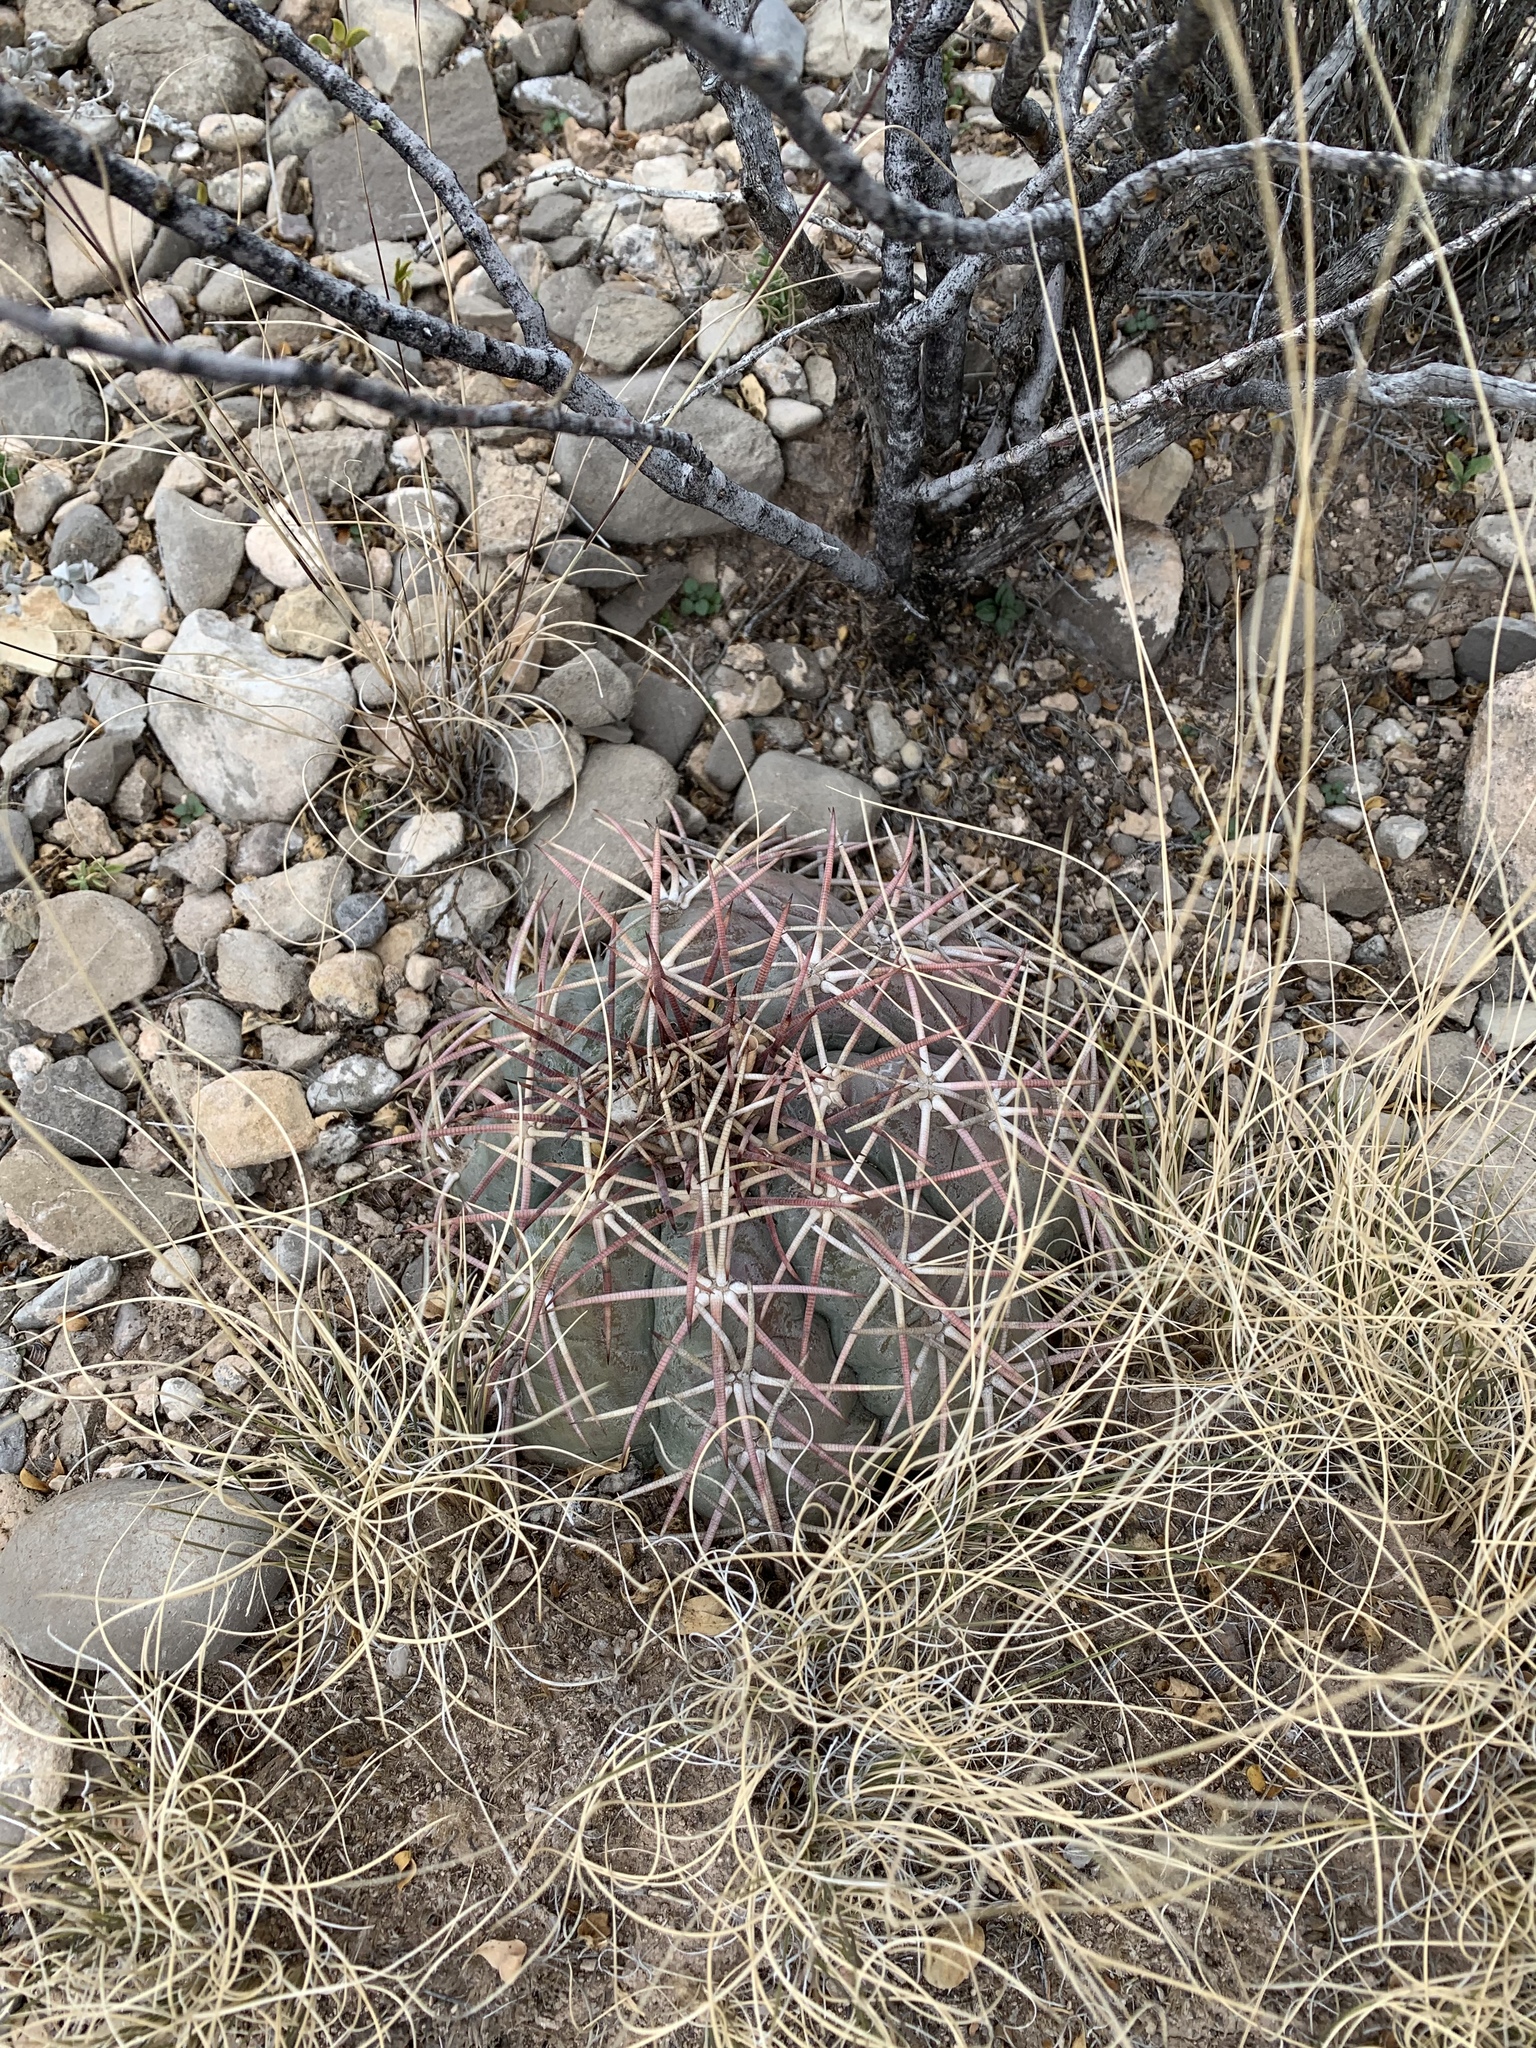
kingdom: Plantae
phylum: Tracheophyta
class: Magnoliopsida
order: Caryophyllales
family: Cactaceae
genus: Echinocactus
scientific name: Echinocactus horizonthalonius
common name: Devilshead
